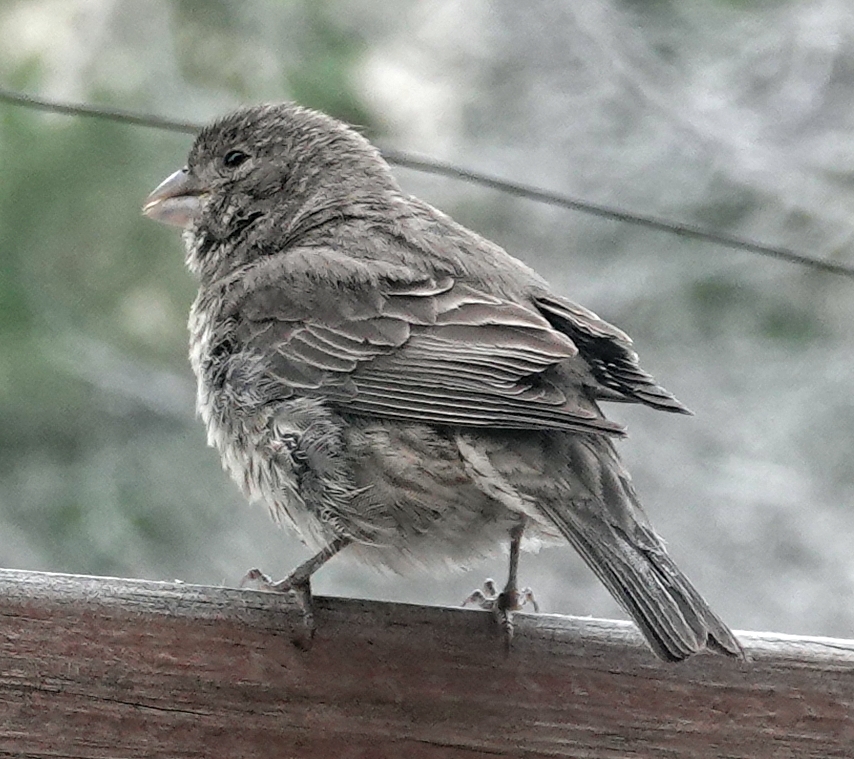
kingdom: Animalia
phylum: Chordata
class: Aves
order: Passeriformes
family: Fringillidae
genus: Haemorhous
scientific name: Haemorhous mexicanus
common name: House finch
